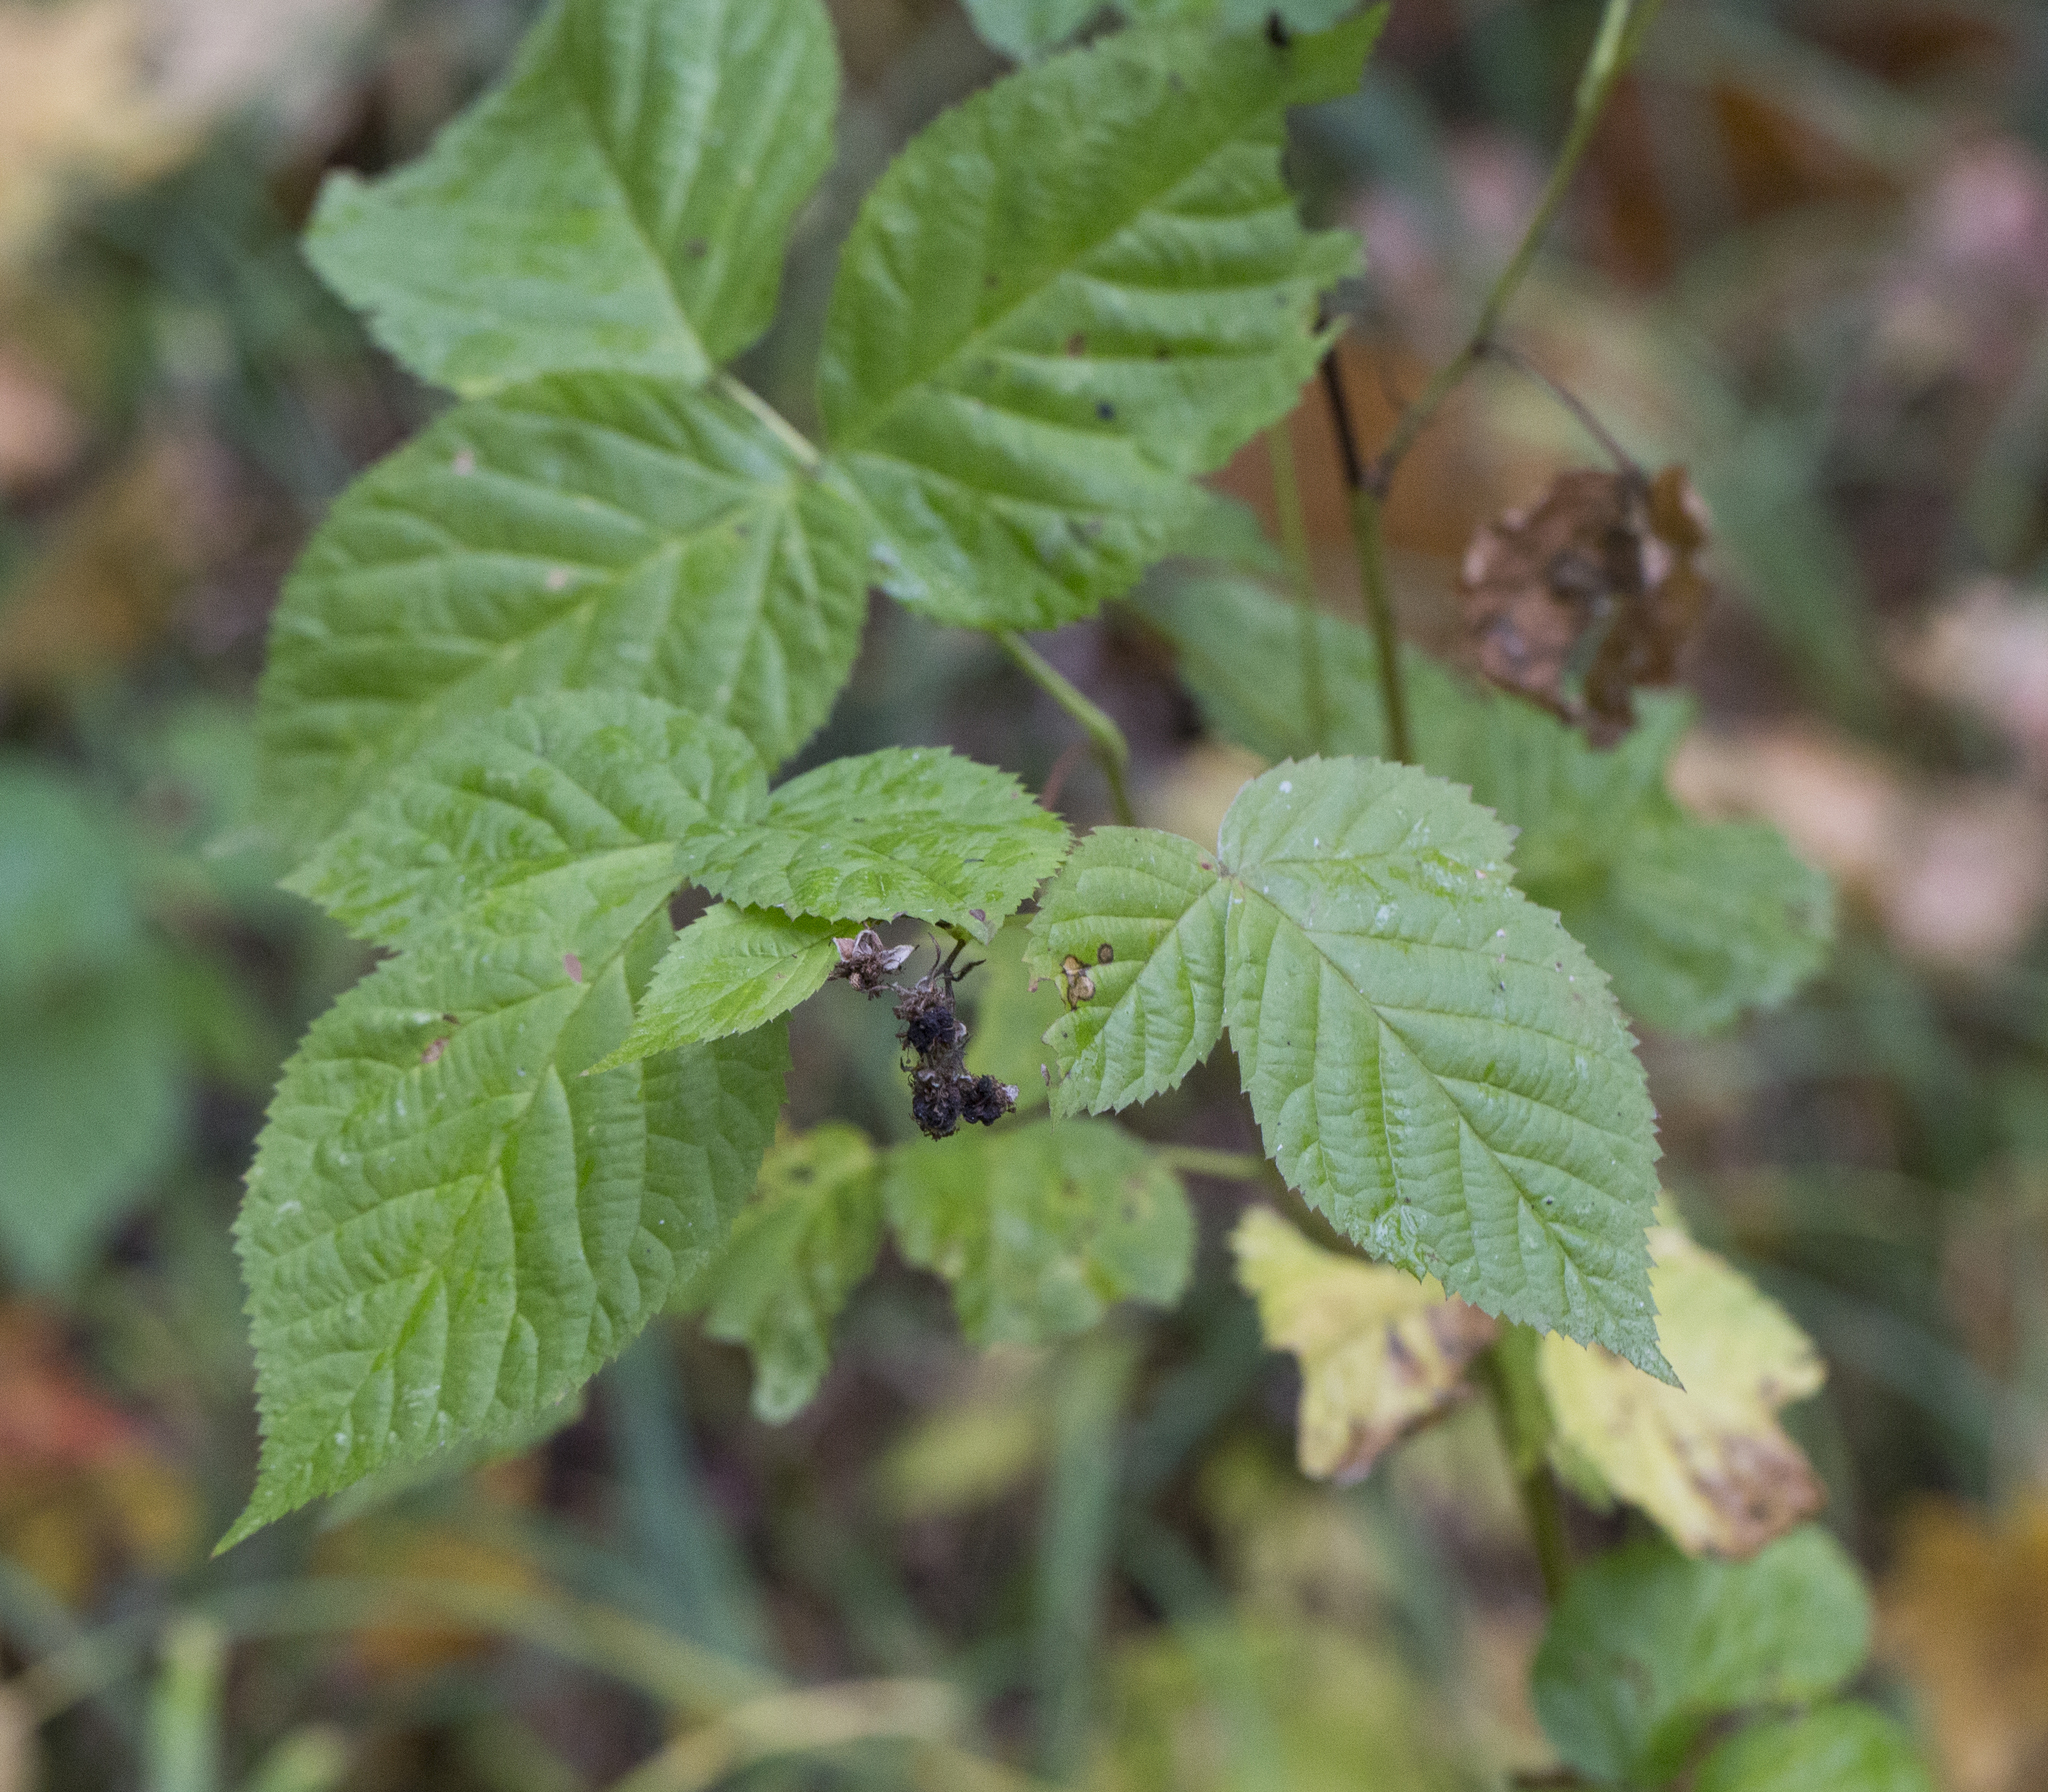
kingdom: Plantae
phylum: Tracheophyta
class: Magnoliopsida
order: Rosales
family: Rosaceae
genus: Rubus
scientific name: Rubus polonicus
